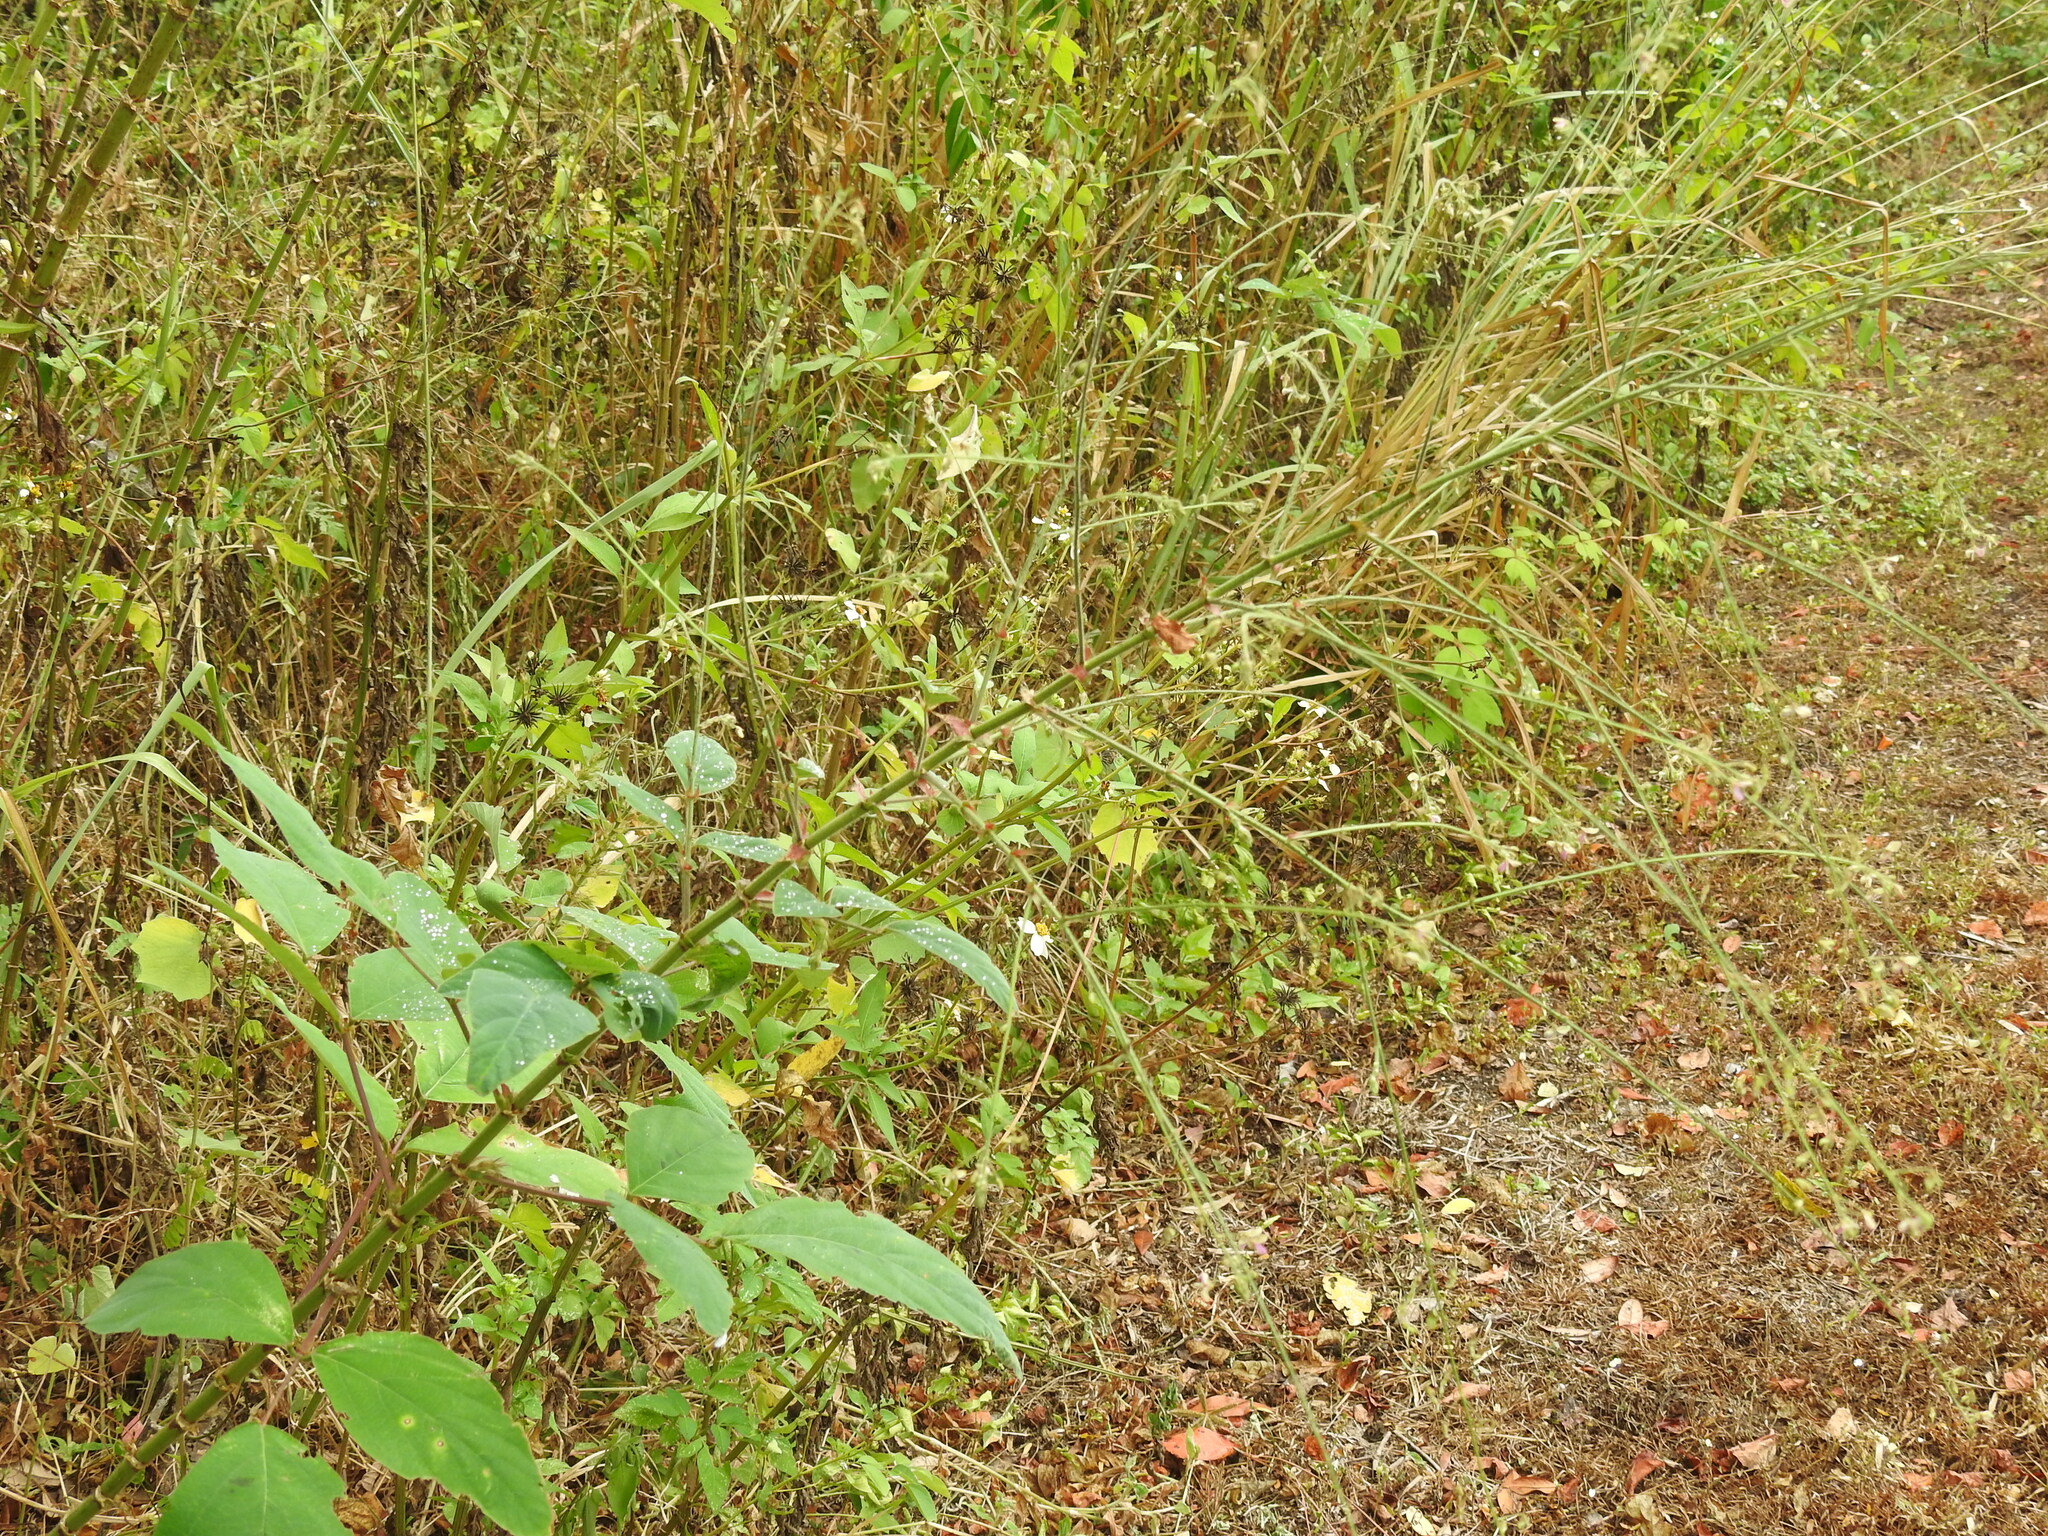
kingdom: Plantae
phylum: Tracheophyta
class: Magnoliopsida
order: Fabales
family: Fabaceae
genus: Desmodium
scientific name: Desmodium tortuosum
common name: Dixie ticktrefoil
